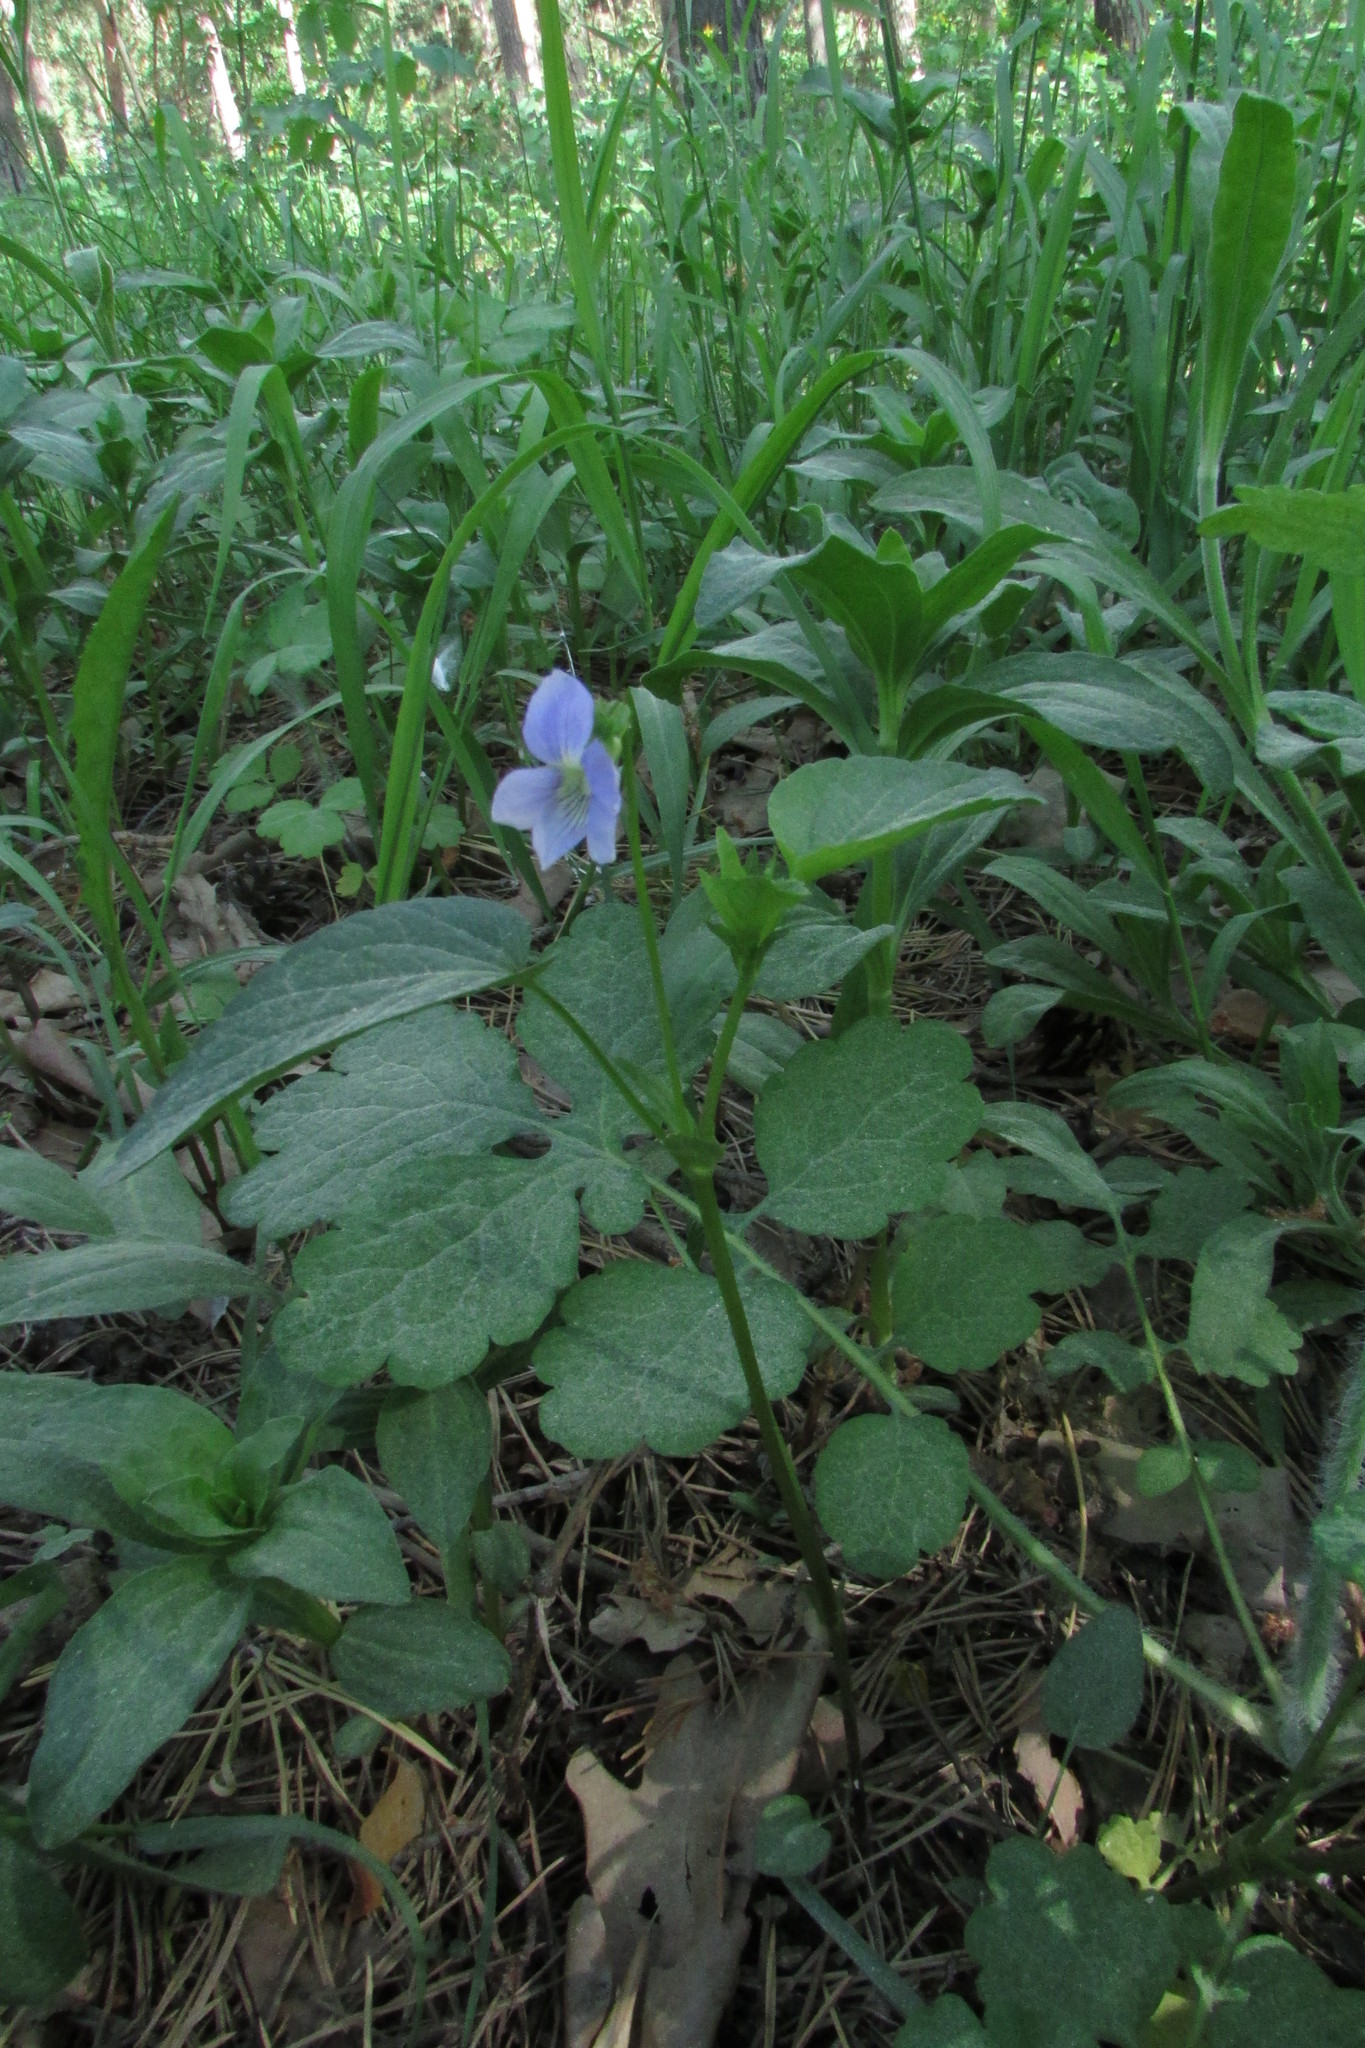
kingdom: Plantae
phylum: Tracheophyta
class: Magnoliopsida
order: Malpighiales
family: Violaceae
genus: Viola
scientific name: Viola
